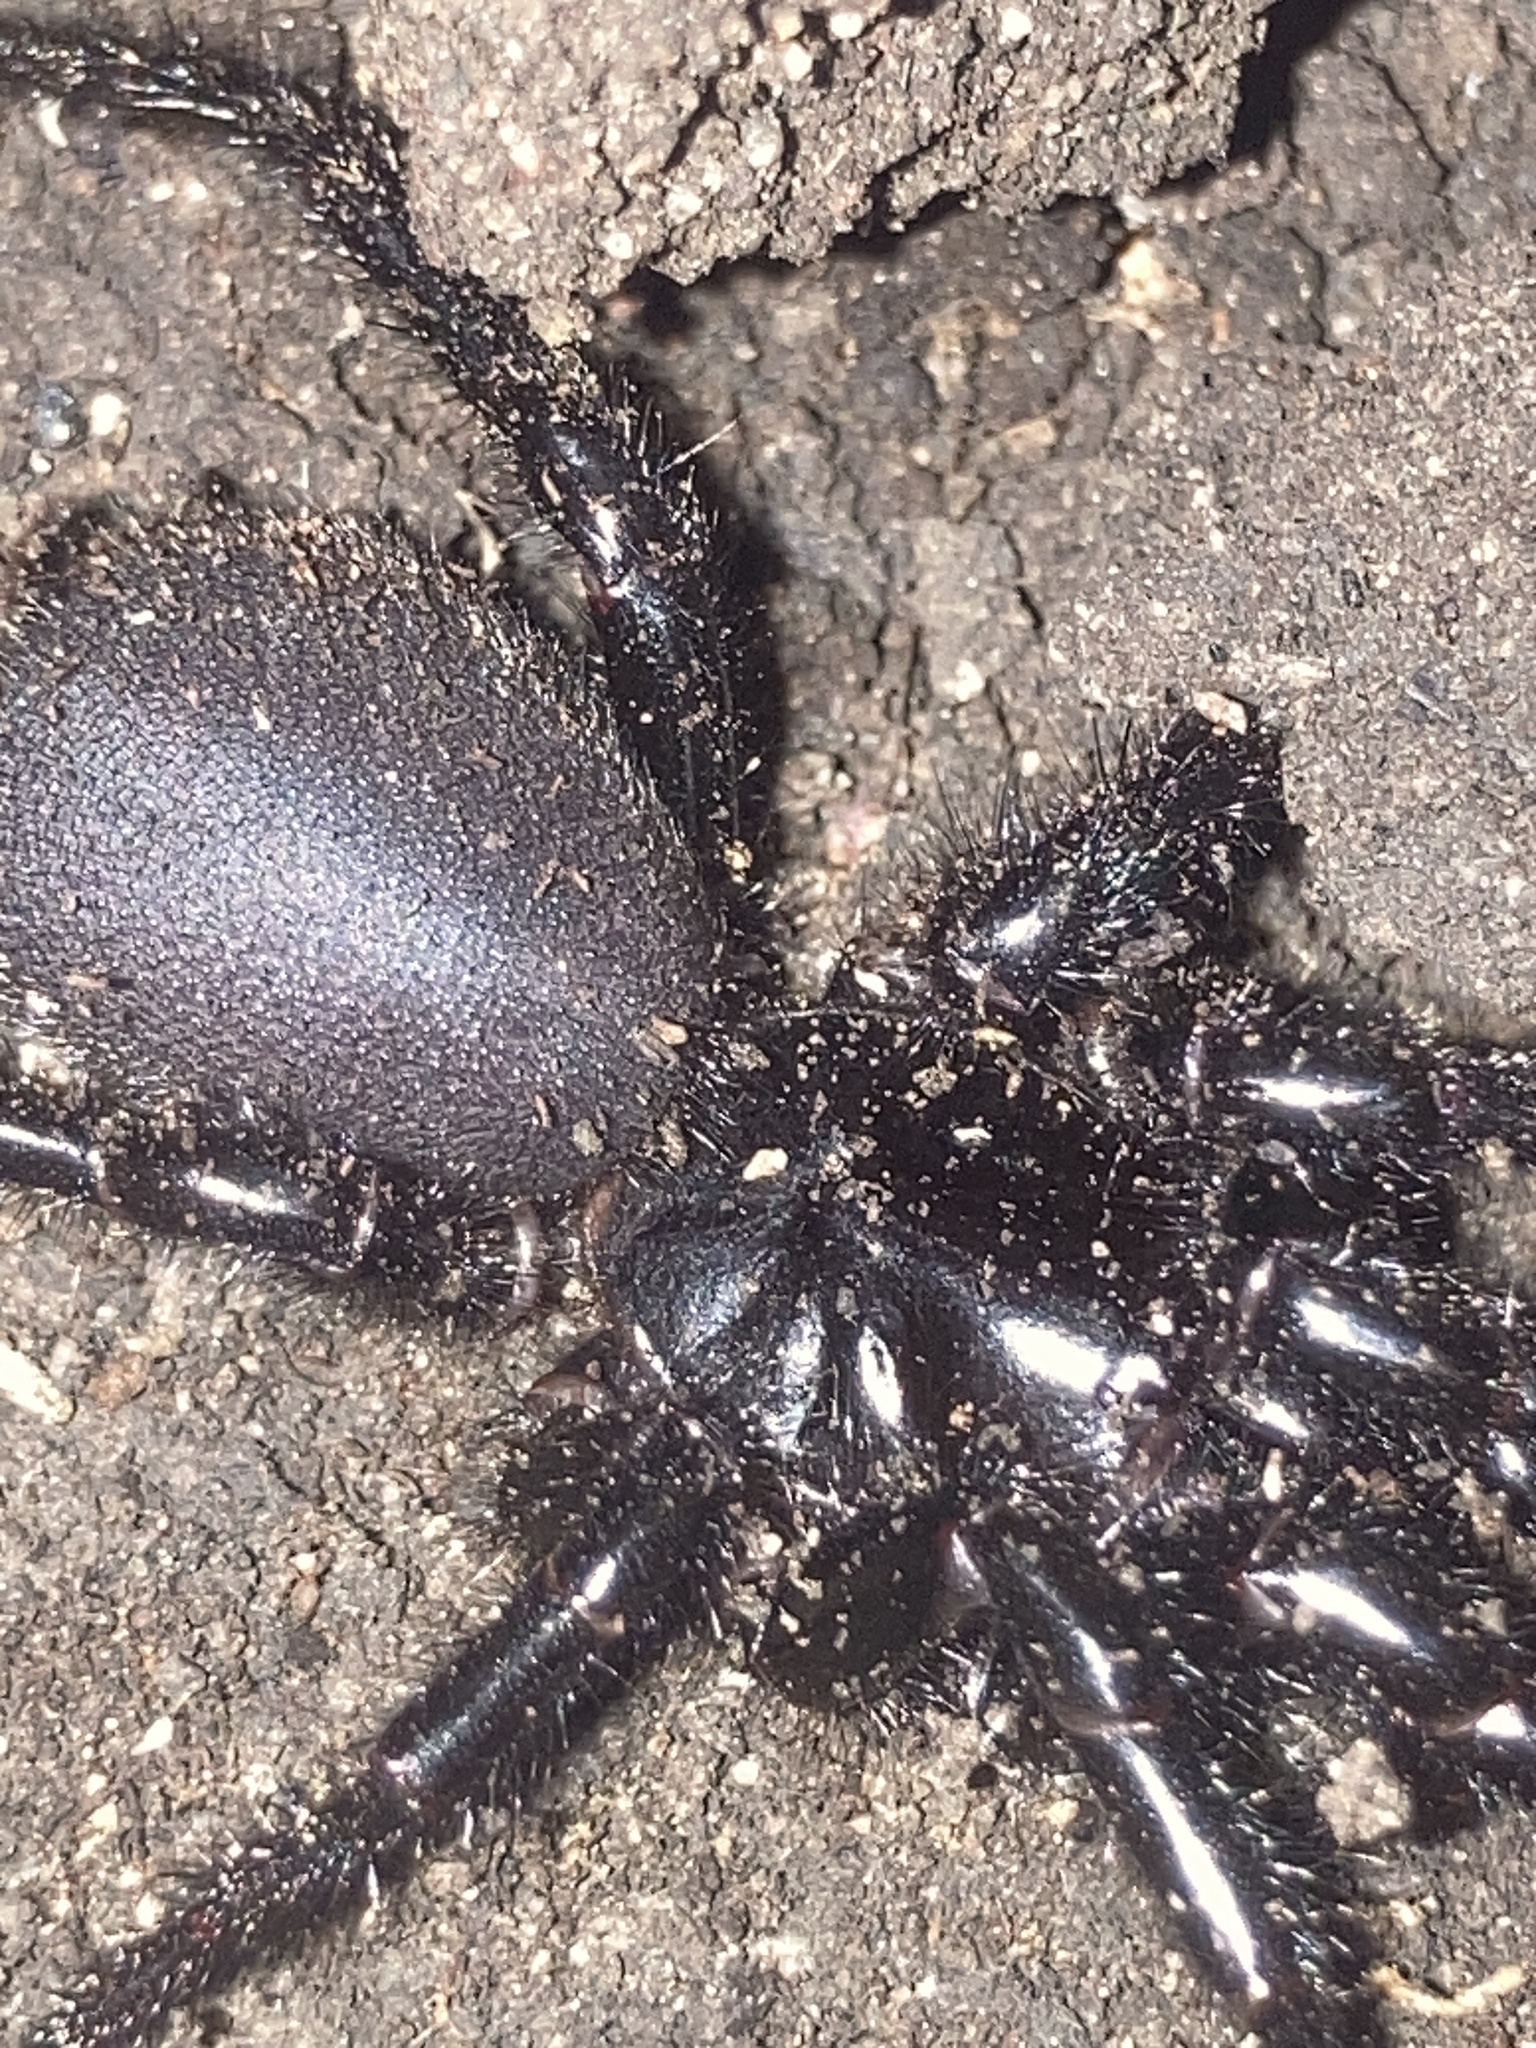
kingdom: Animalia
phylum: Arthropoda
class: Arachnida
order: Araneae
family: Atracidae
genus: Atrax
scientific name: Atrax robustus
